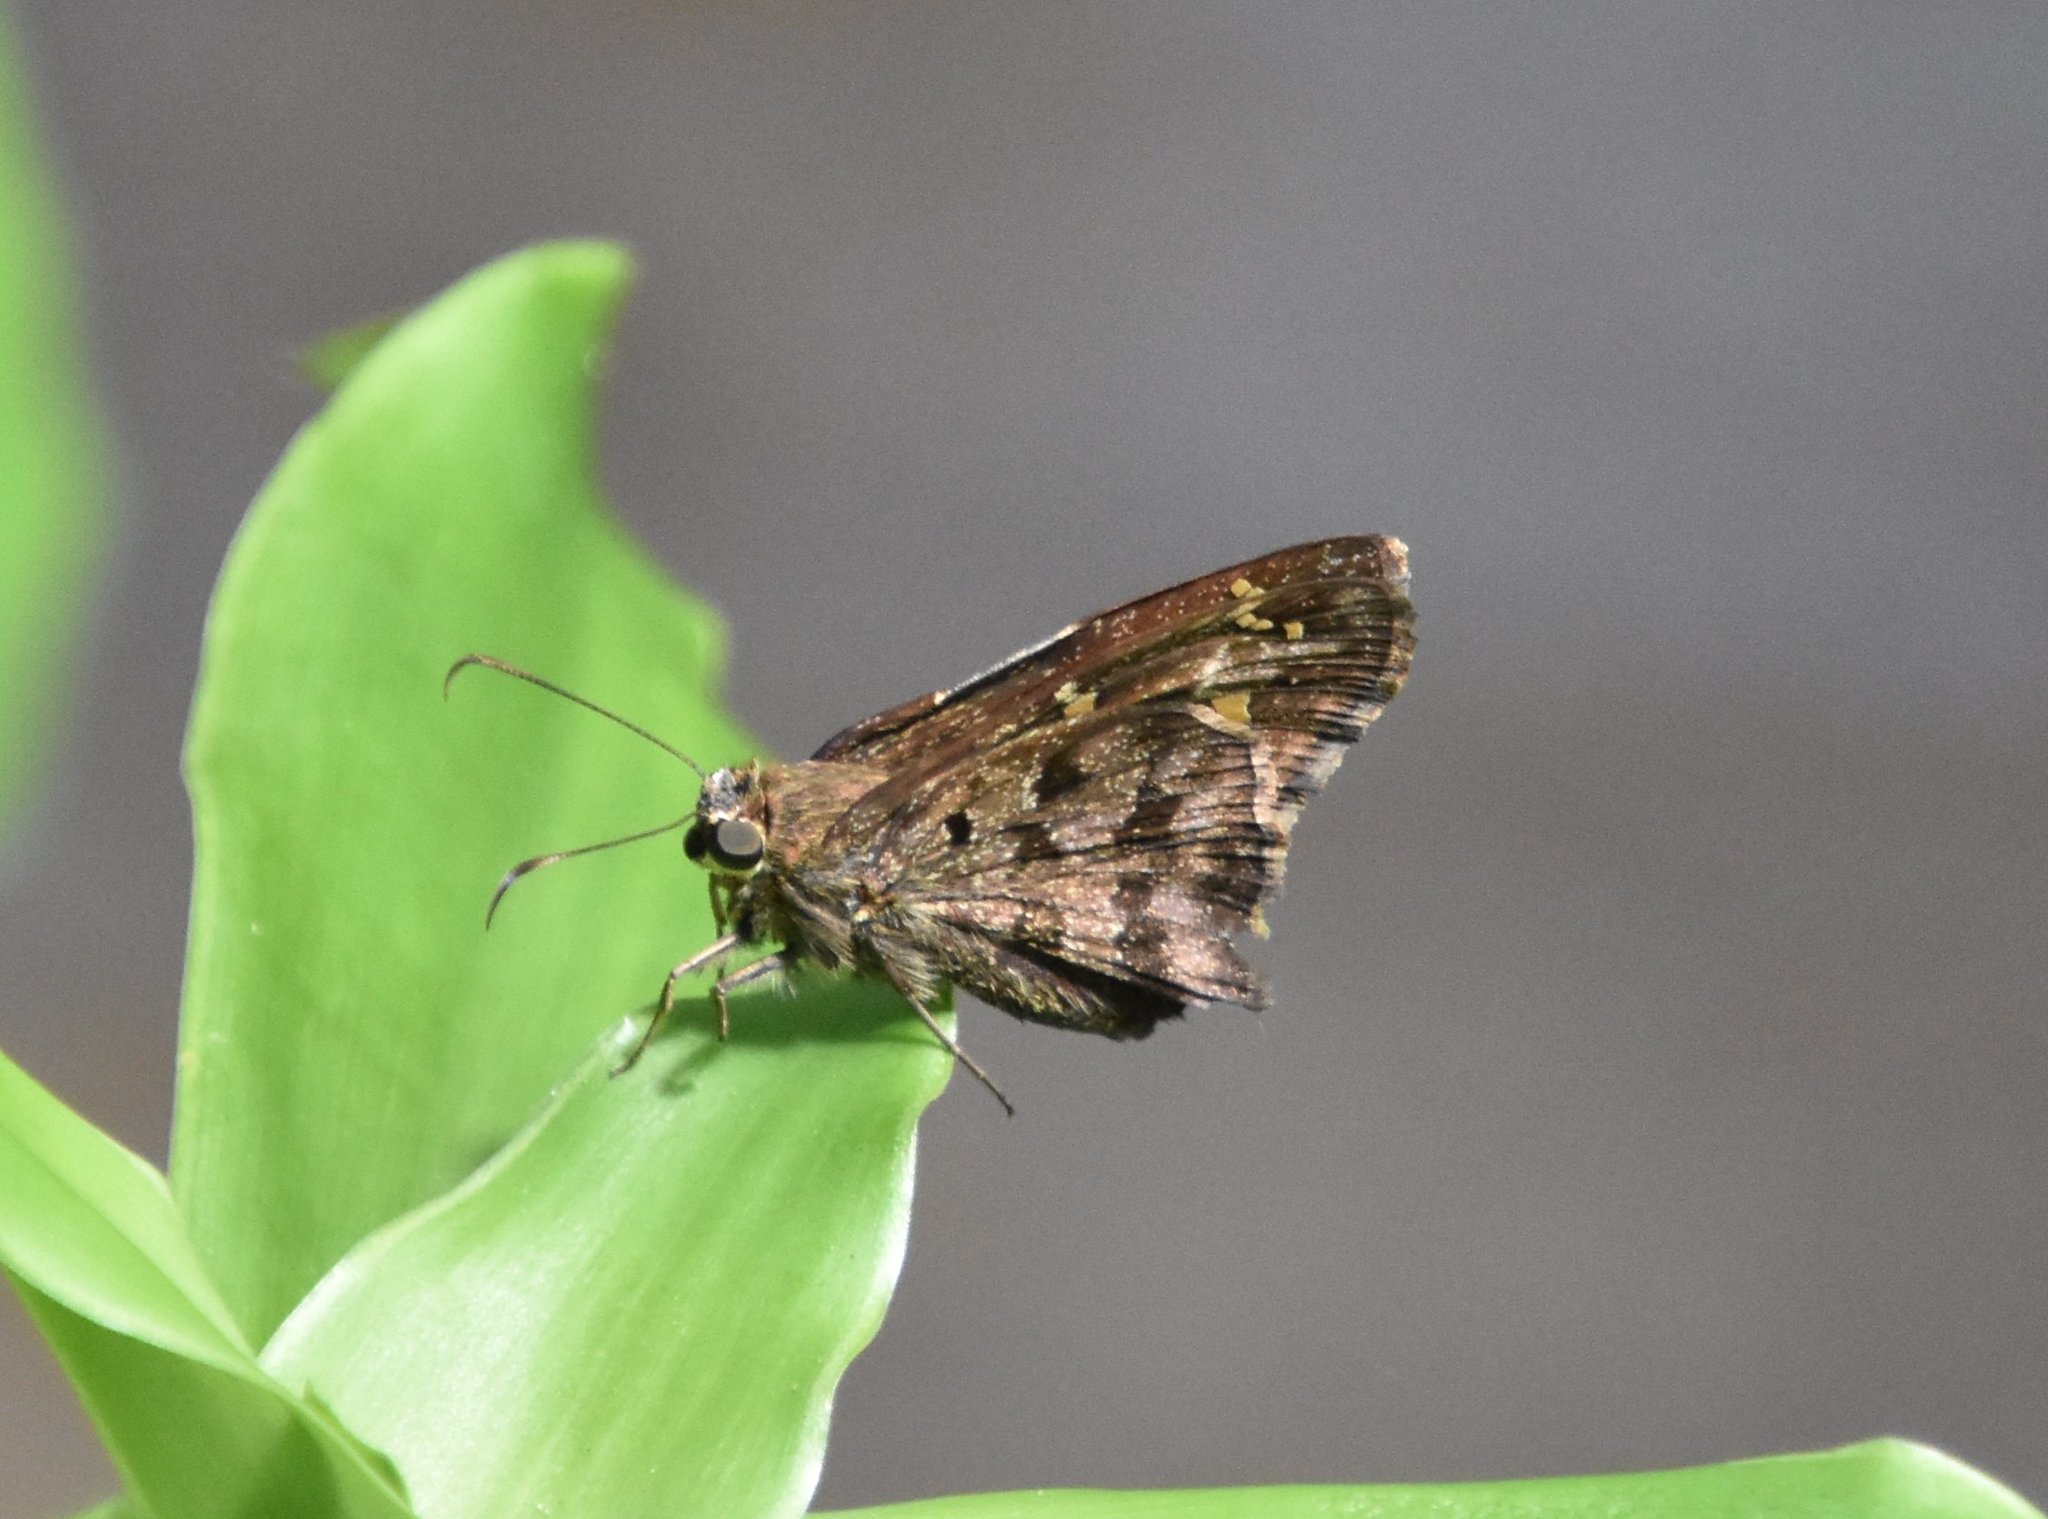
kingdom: Animalia
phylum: Arthropoda
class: Insecta
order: Lepidoptera
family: Hesperiidae
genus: Thorybes
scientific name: Thorybes
